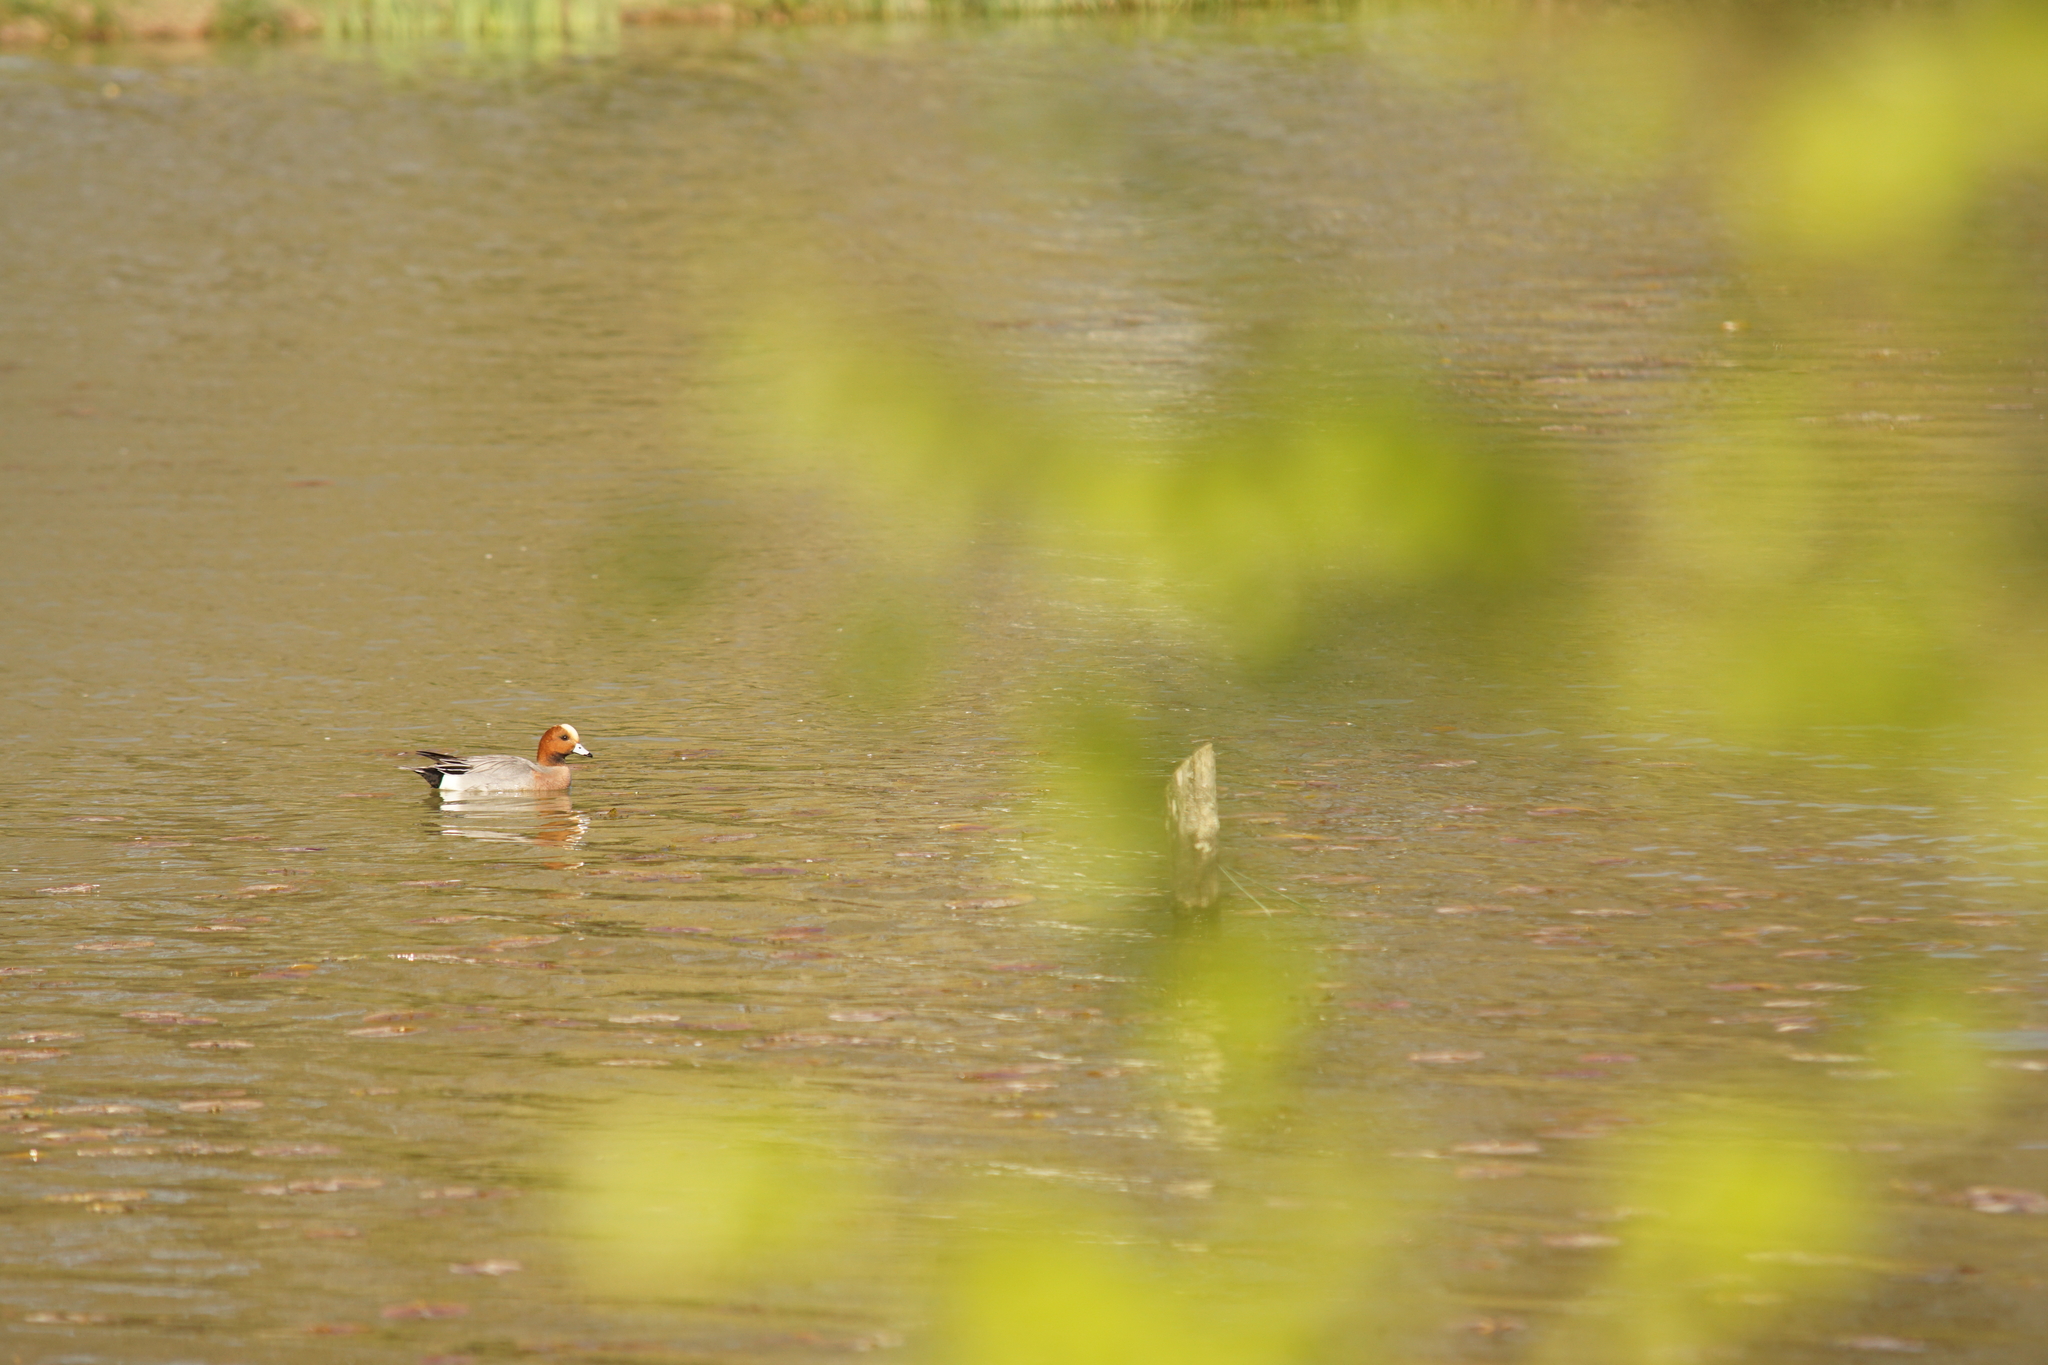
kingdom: Animalia
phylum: Chordata
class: Aves
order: Anseriformes
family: Anatidae
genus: Mareca
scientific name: Mareca penelope
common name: Eurasian wigeon
